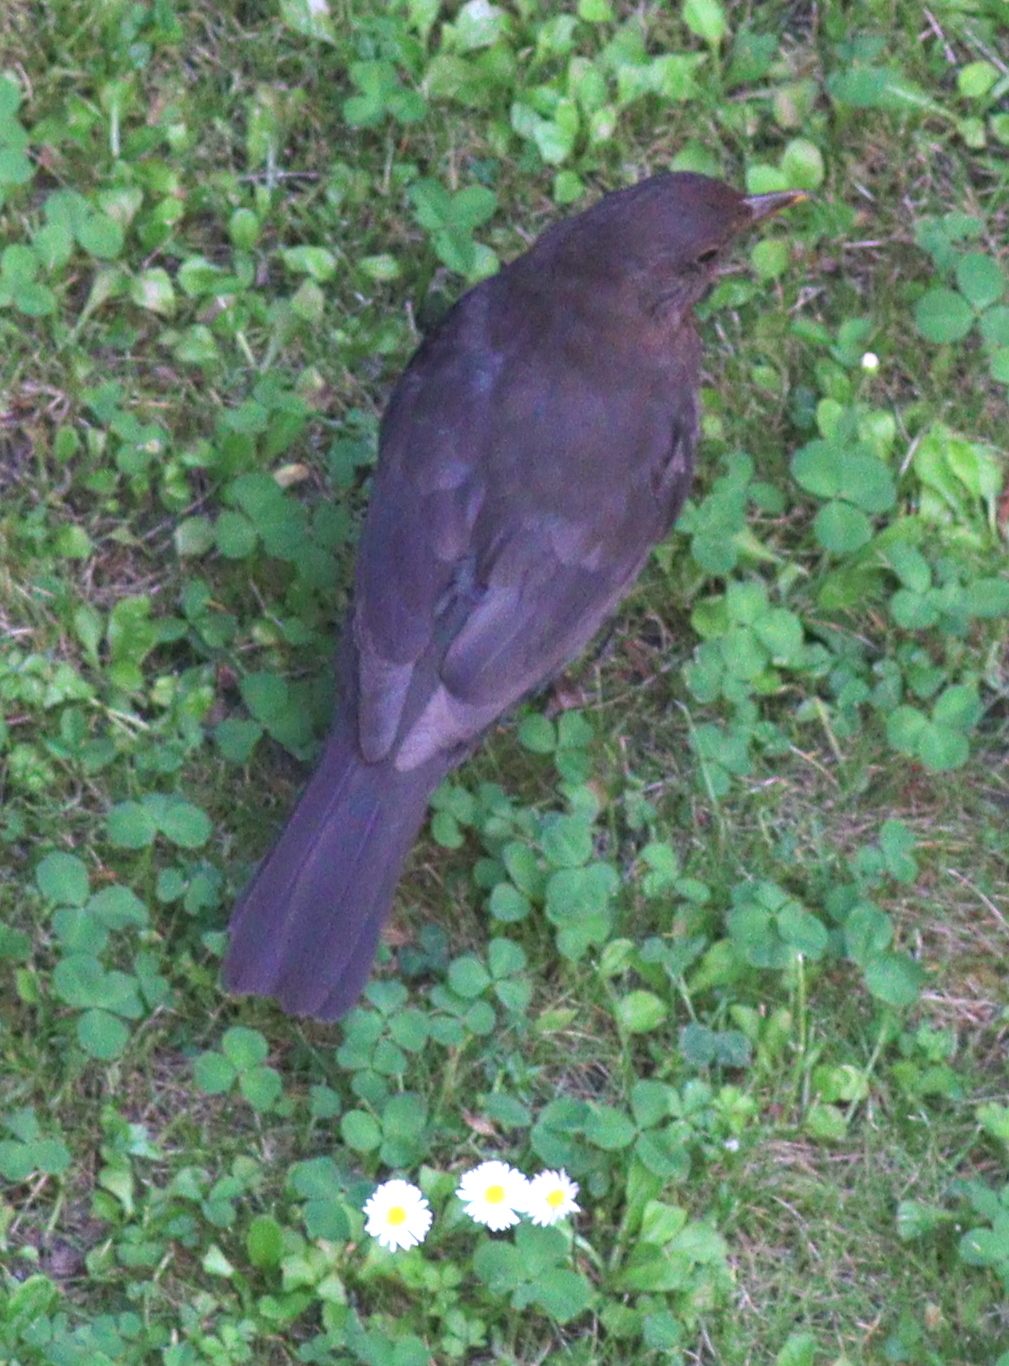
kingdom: Animalia
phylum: Chordata
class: Aves
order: Passeriformes
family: Turdidae
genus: Turdus
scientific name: Turdus merula
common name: Common blackbird
